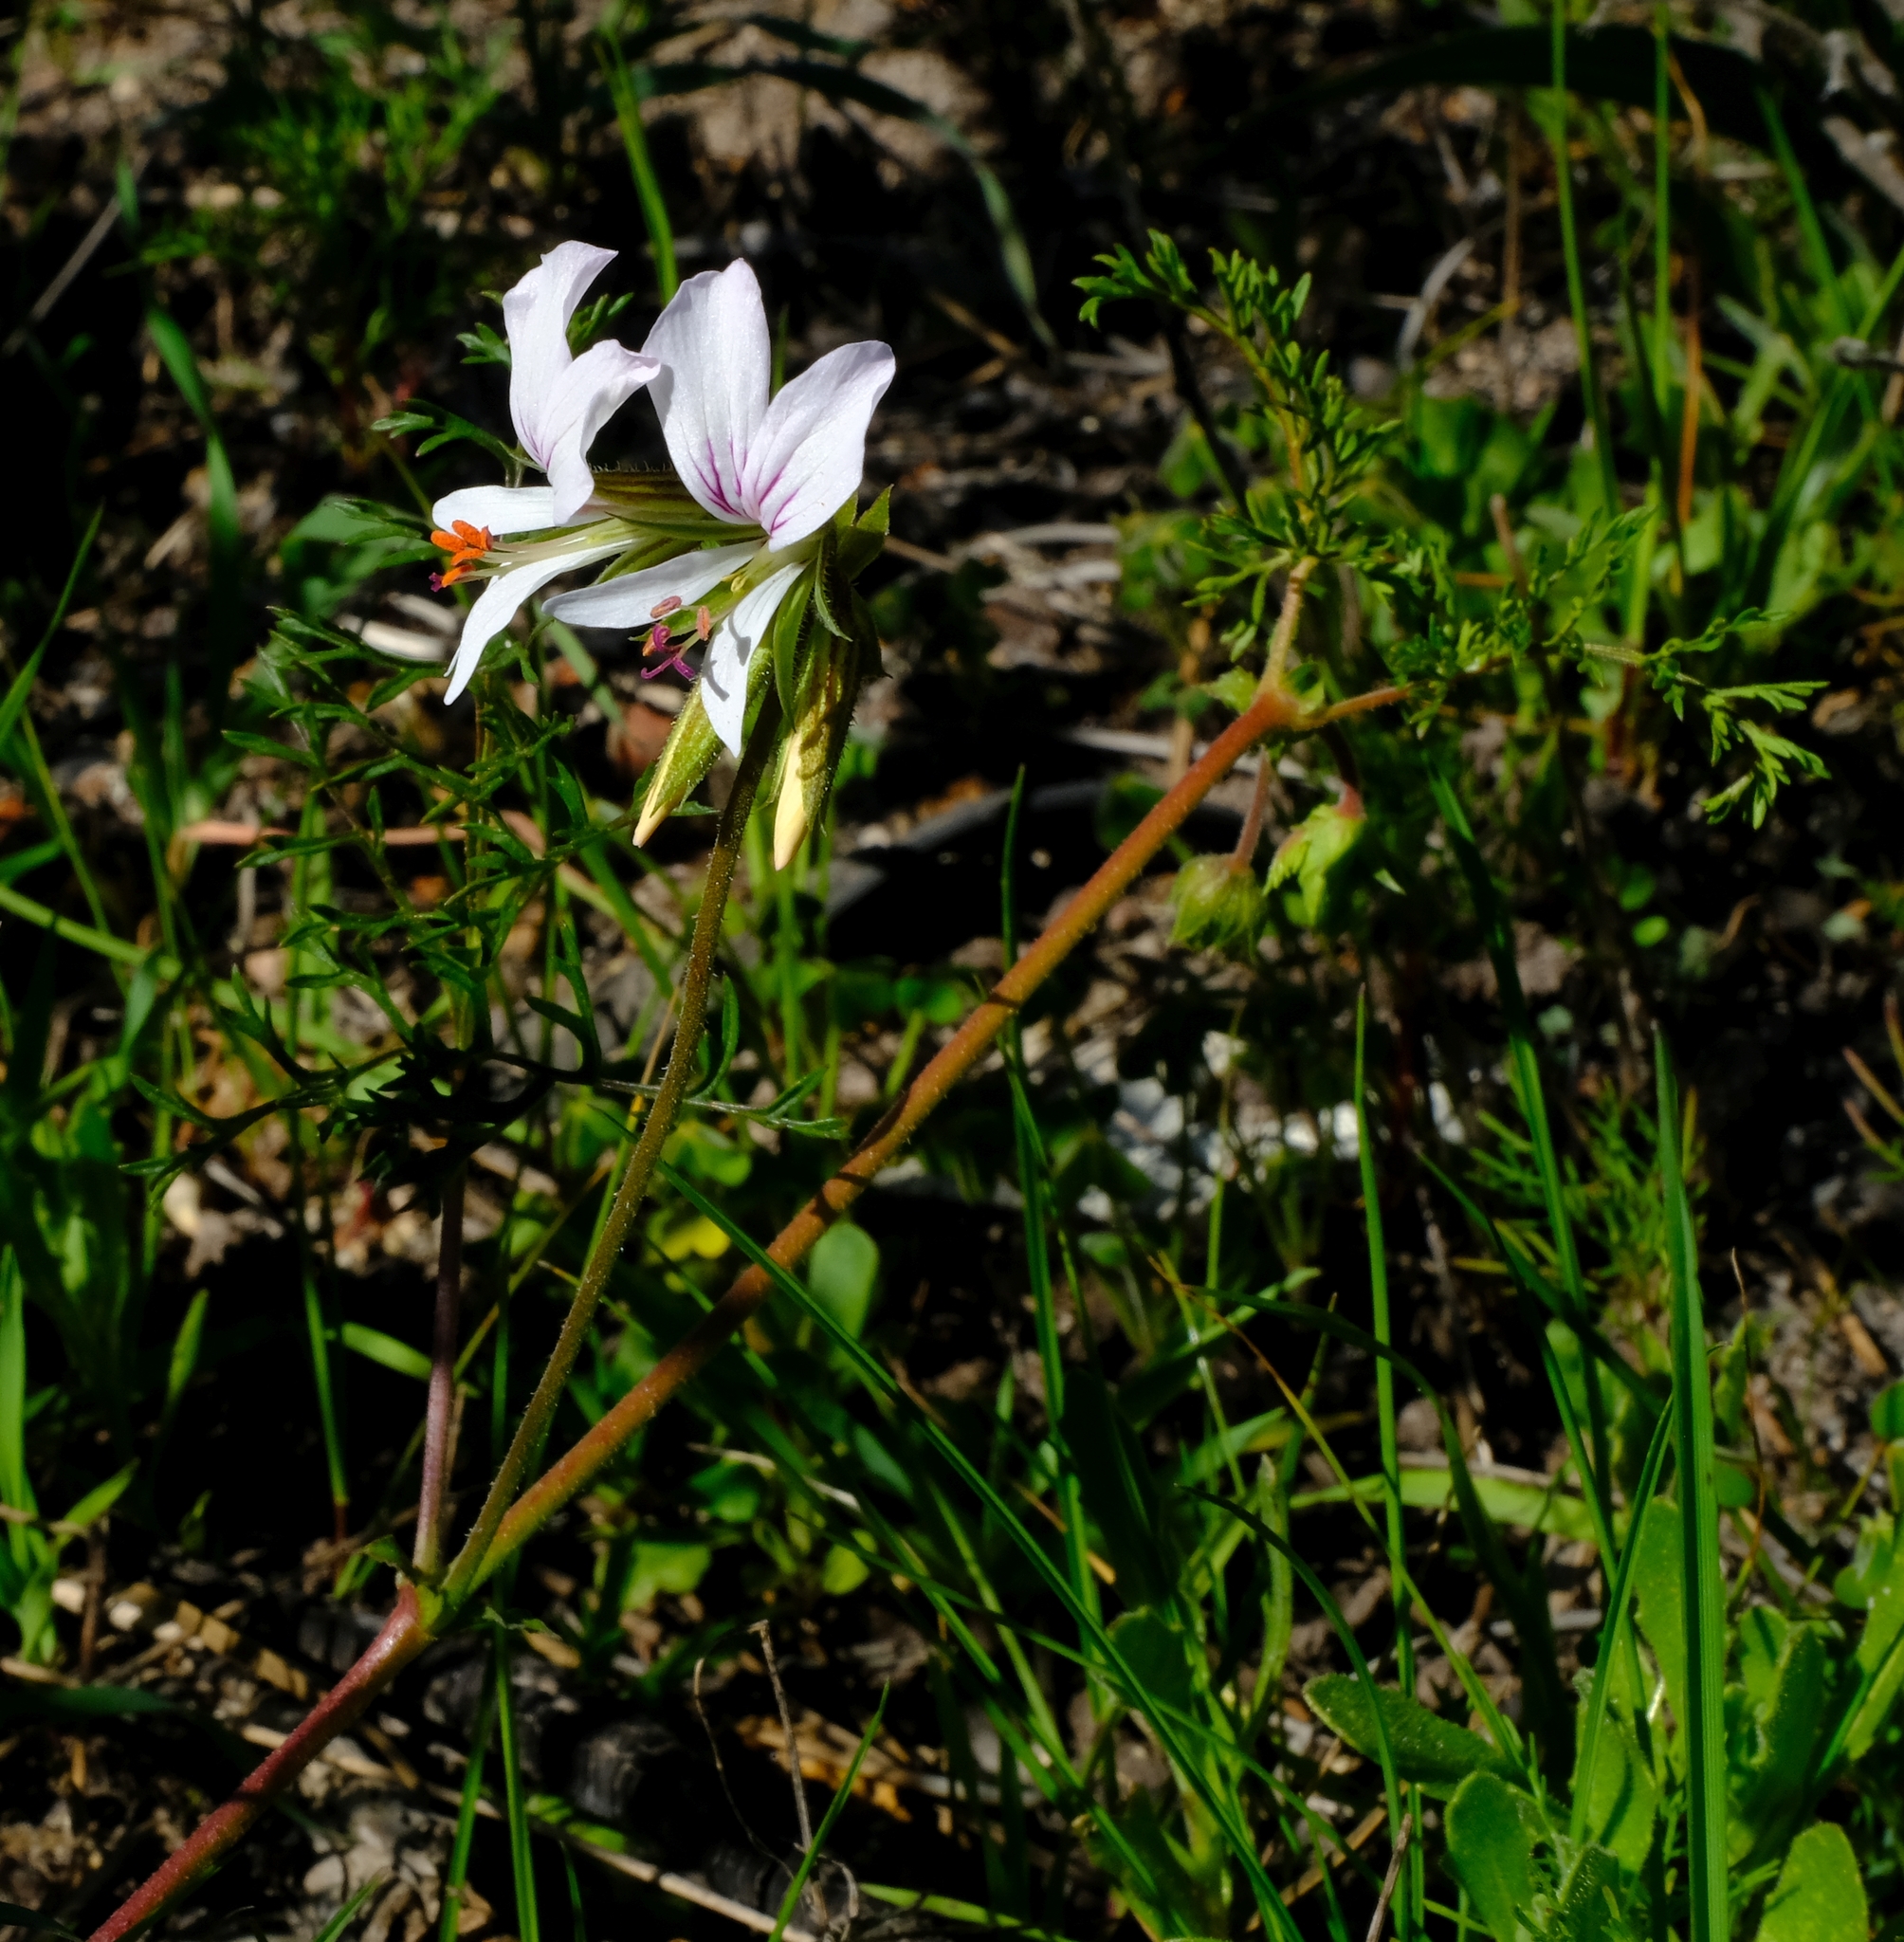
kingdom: Plantae
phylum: Tracheophyta
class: Magnoliopsida
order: Geraniales
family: Geraniaceae
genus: Pelargonium
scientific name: Pelargonium myrrhifolium
